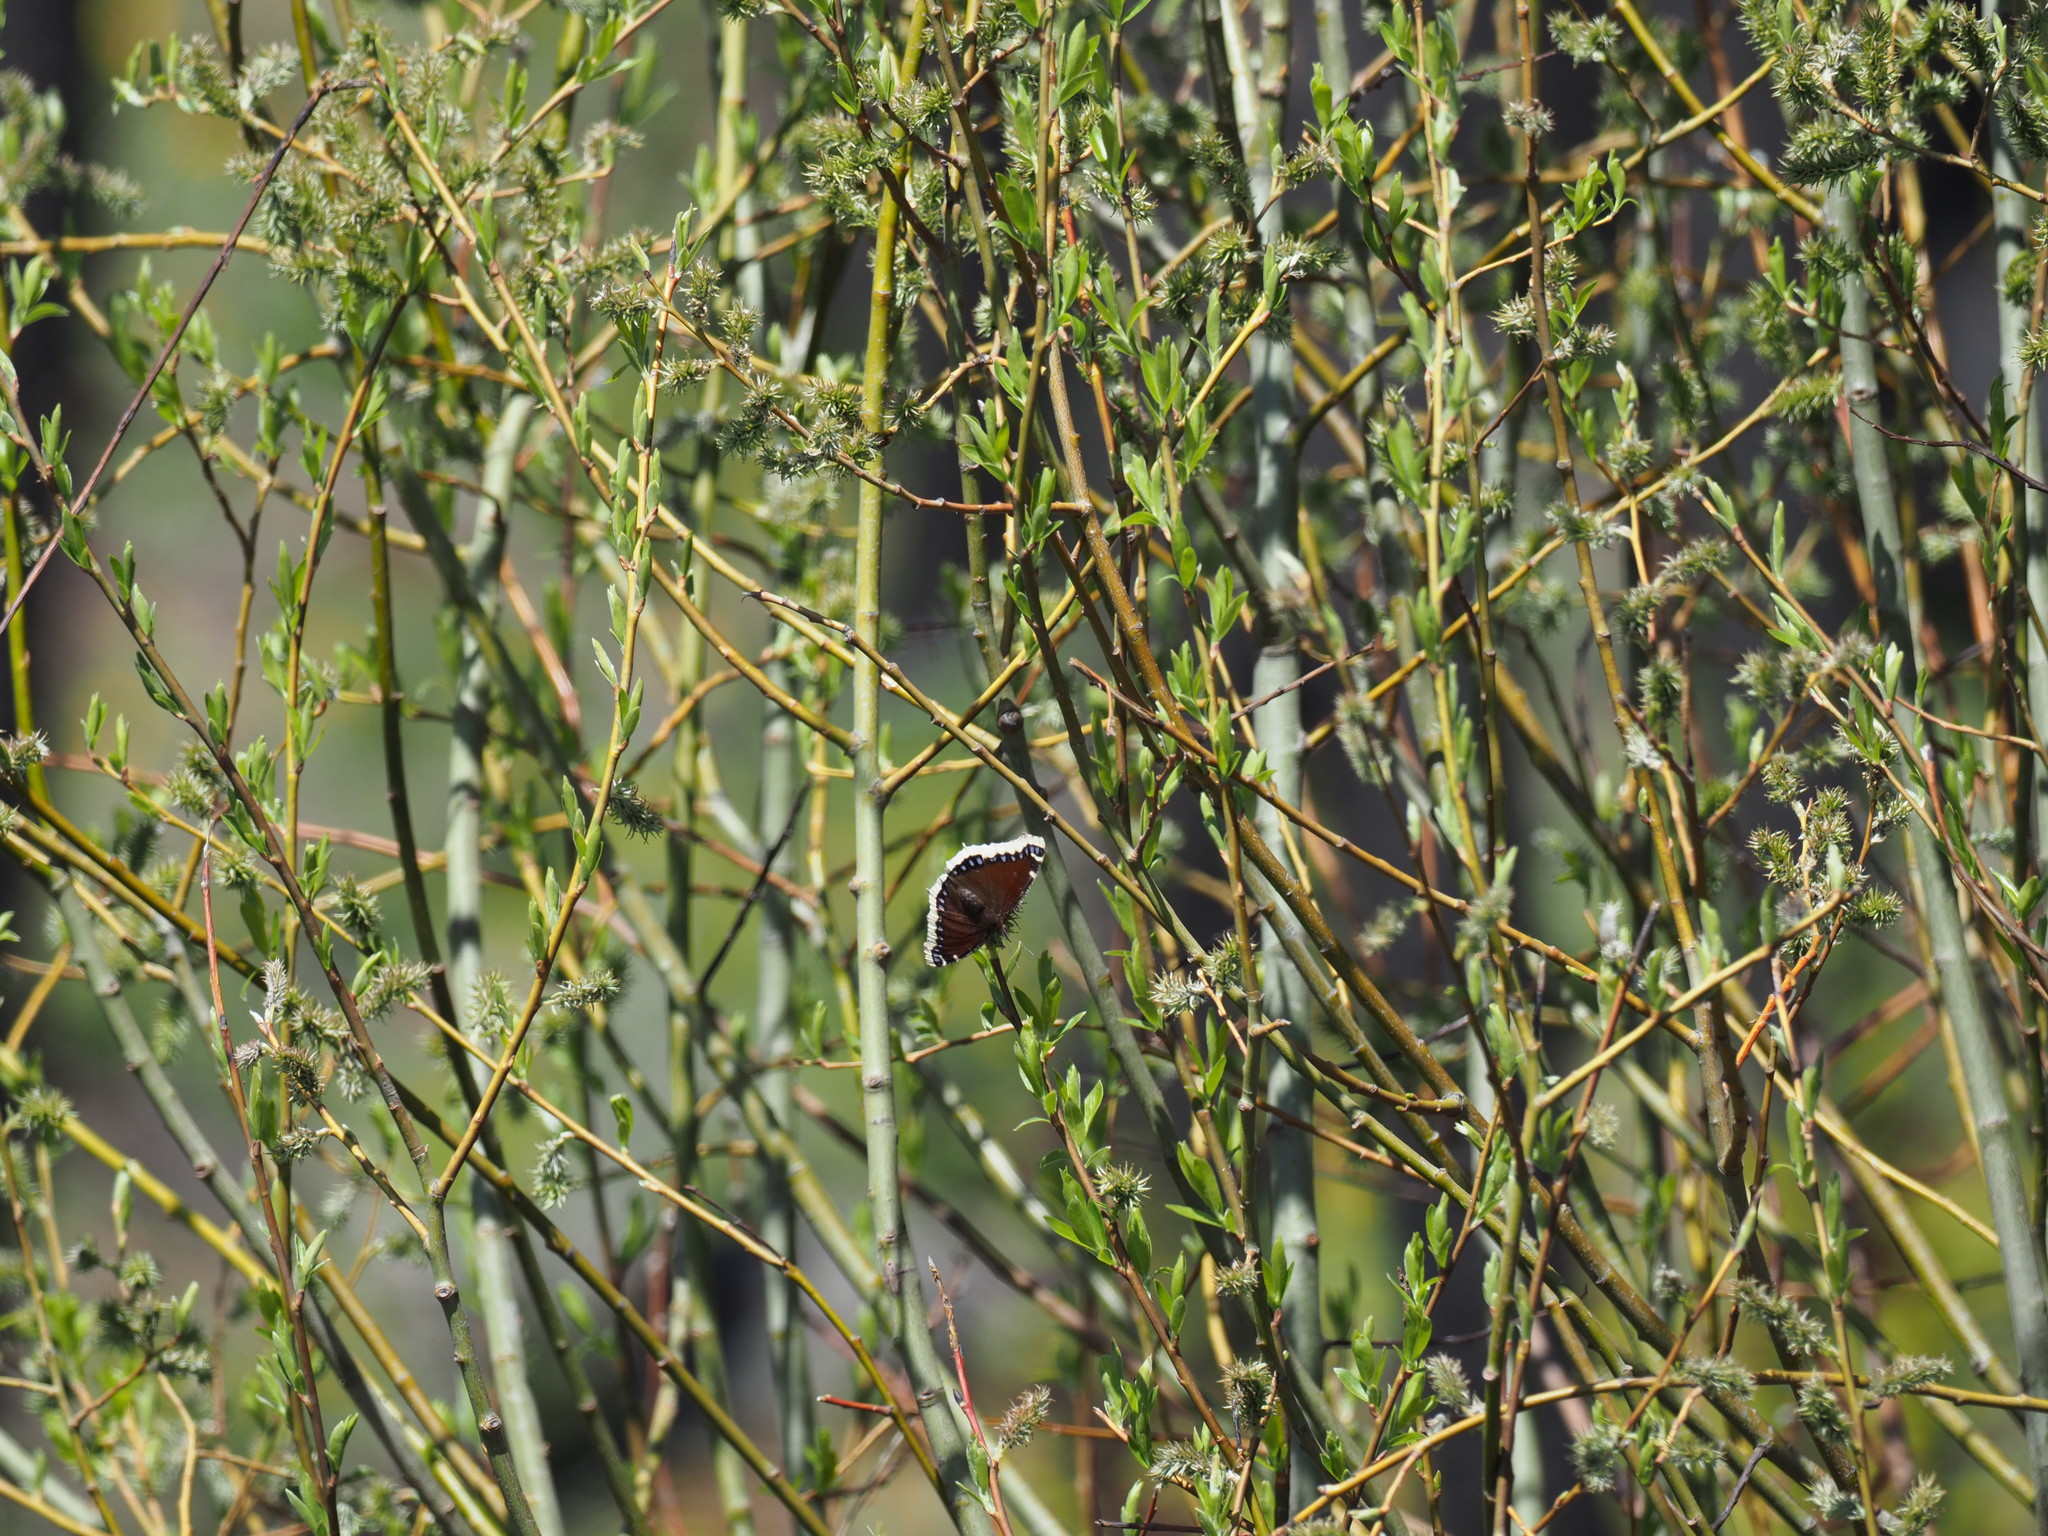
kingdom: Animalia
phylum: Arthropoda
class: Insecta
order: Lepidoptera
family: Nymphalidae
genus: Nymphalis
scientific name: Nymphalis antiopa
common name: Camberwell beauty
